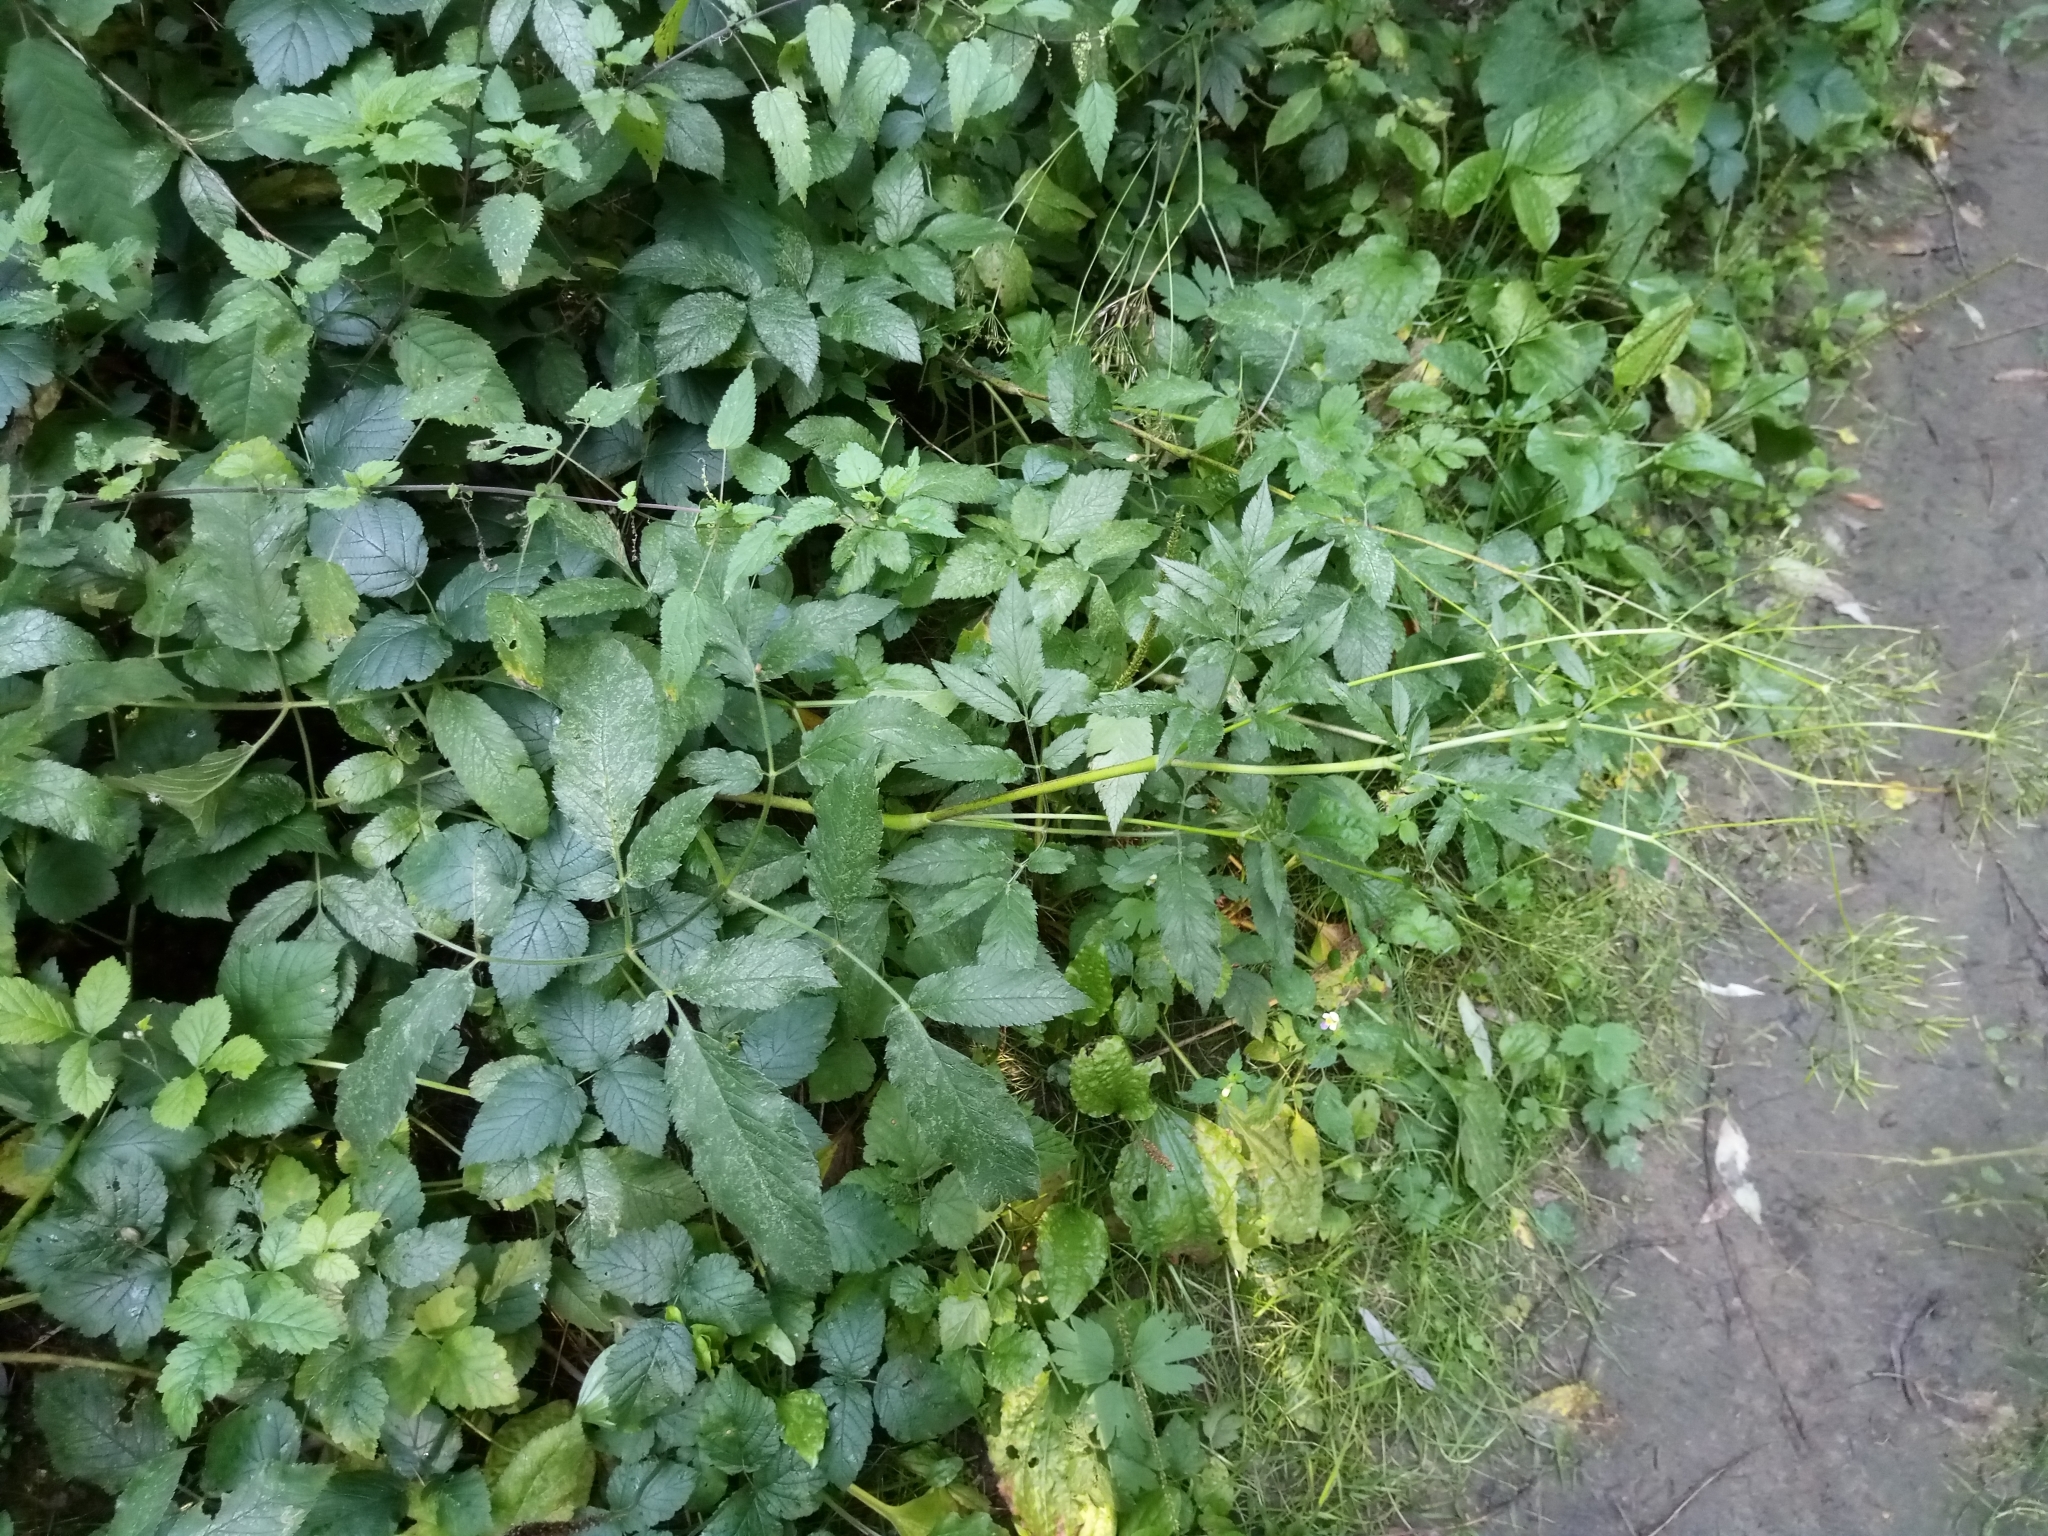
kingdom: Plantae
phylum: Tracheophyta
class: Magnoliopsida
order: Apiales
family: Apiaceae
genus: Chaerophyllum
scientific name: Chaerophyllum aromaticum
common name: Broadleaf chervil
